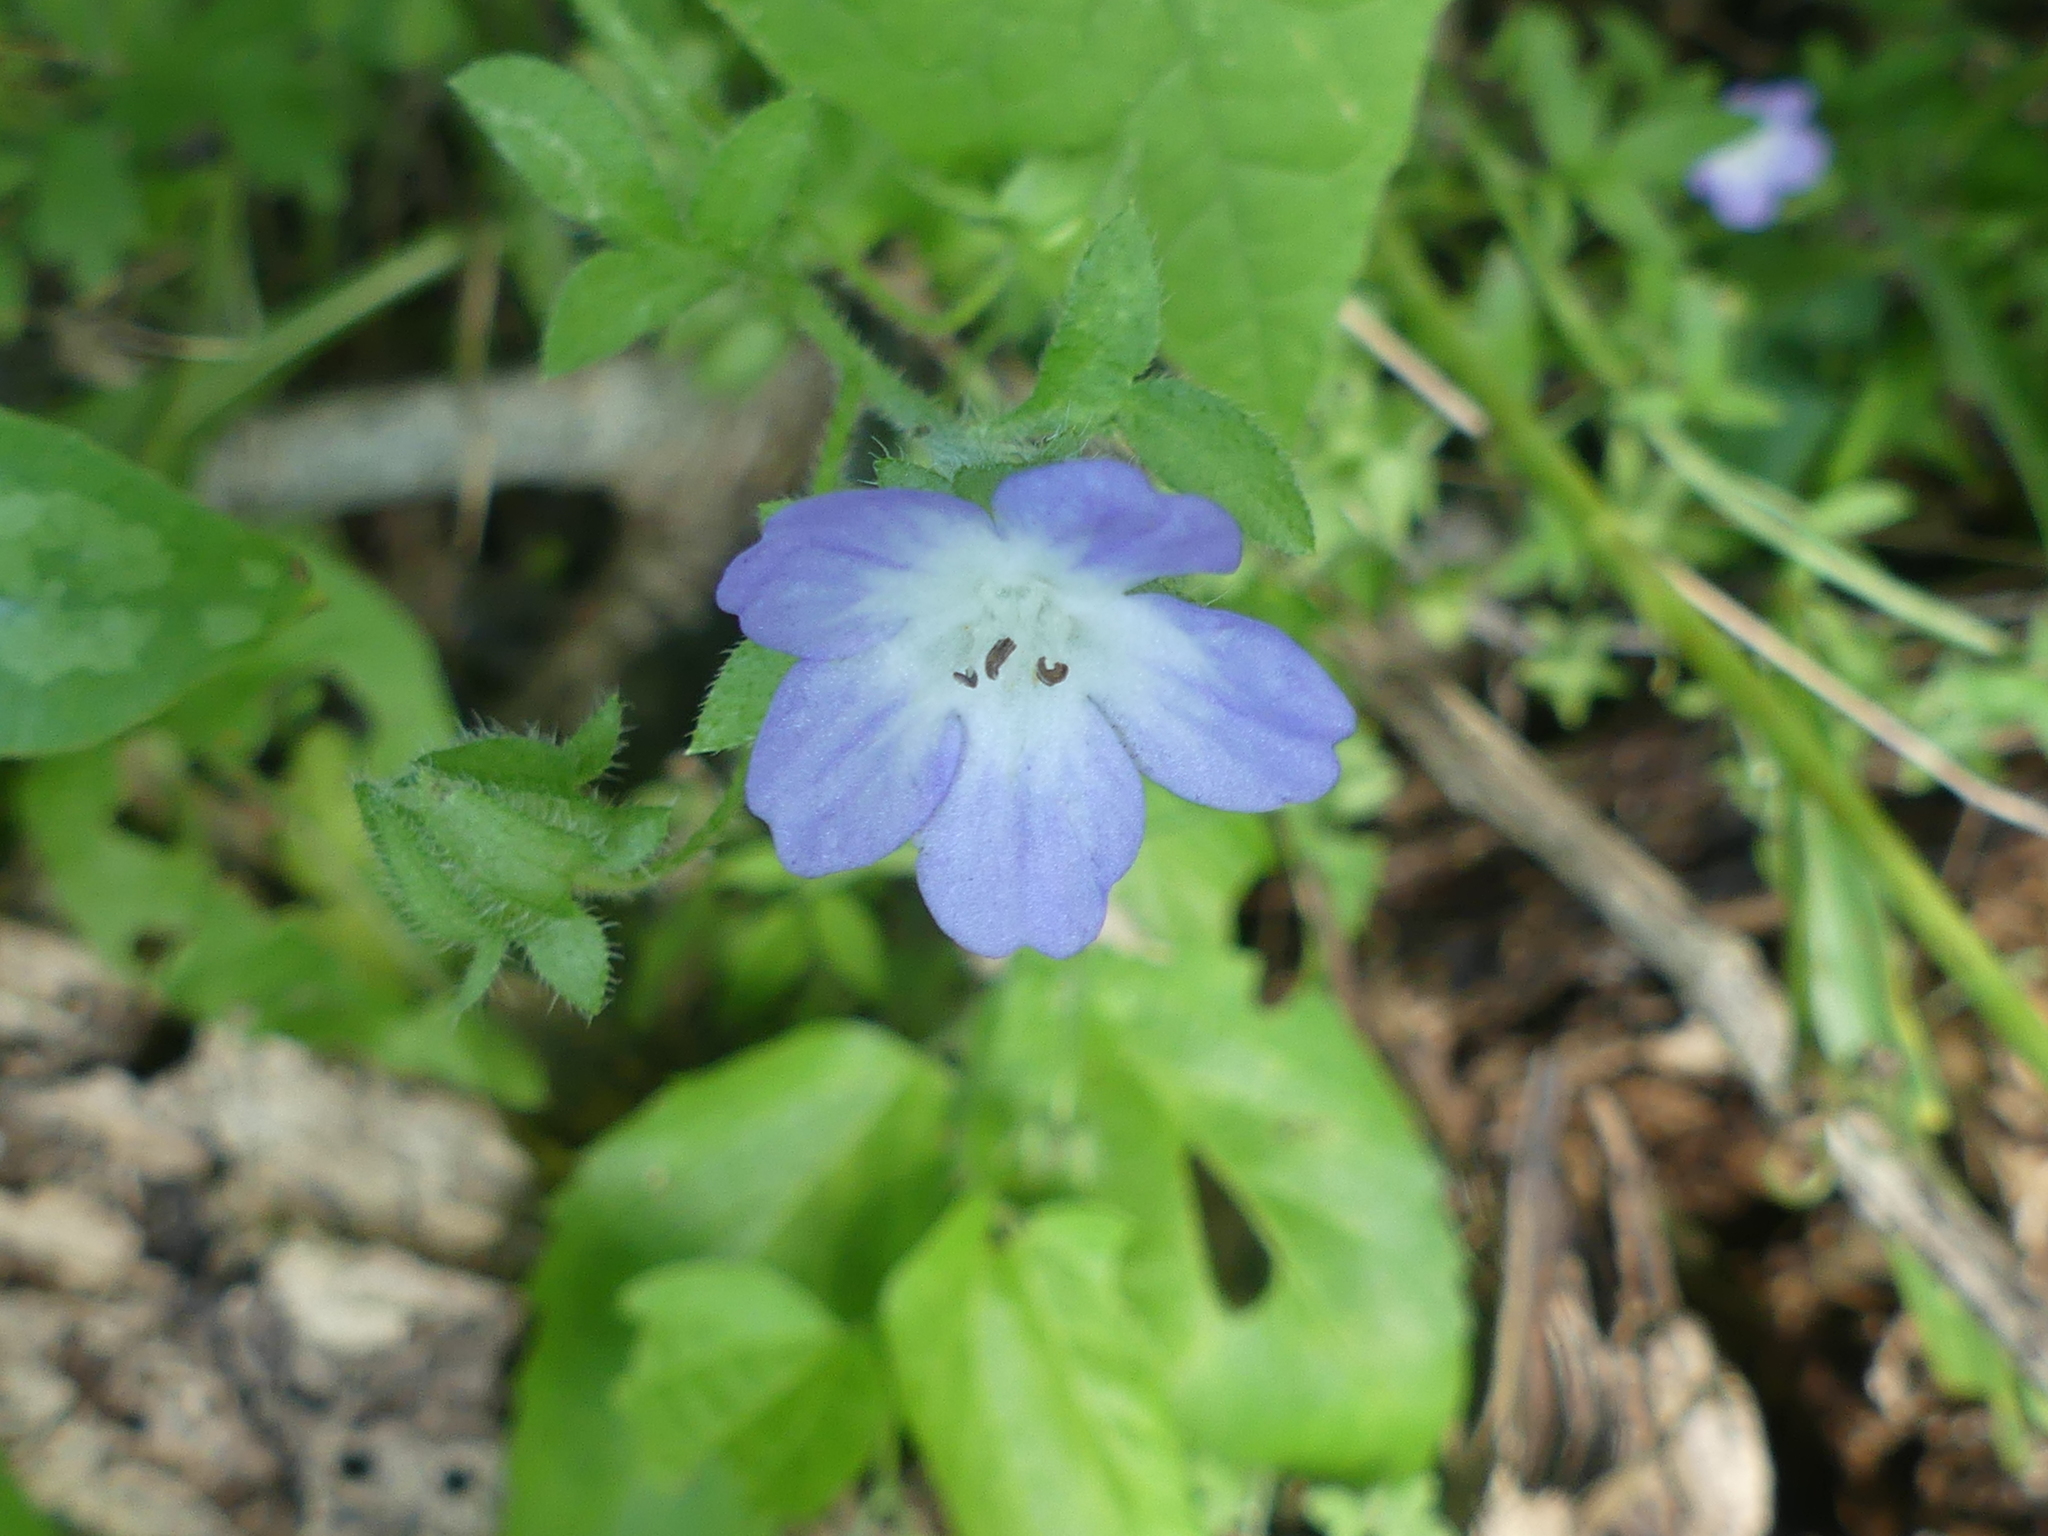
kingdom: Plantae
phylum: Tracheophyta
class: Magnoliopsida
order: Boraginales
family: Hydrophyllaceae
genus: Nemophila
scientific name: Nemophila phacelioides
